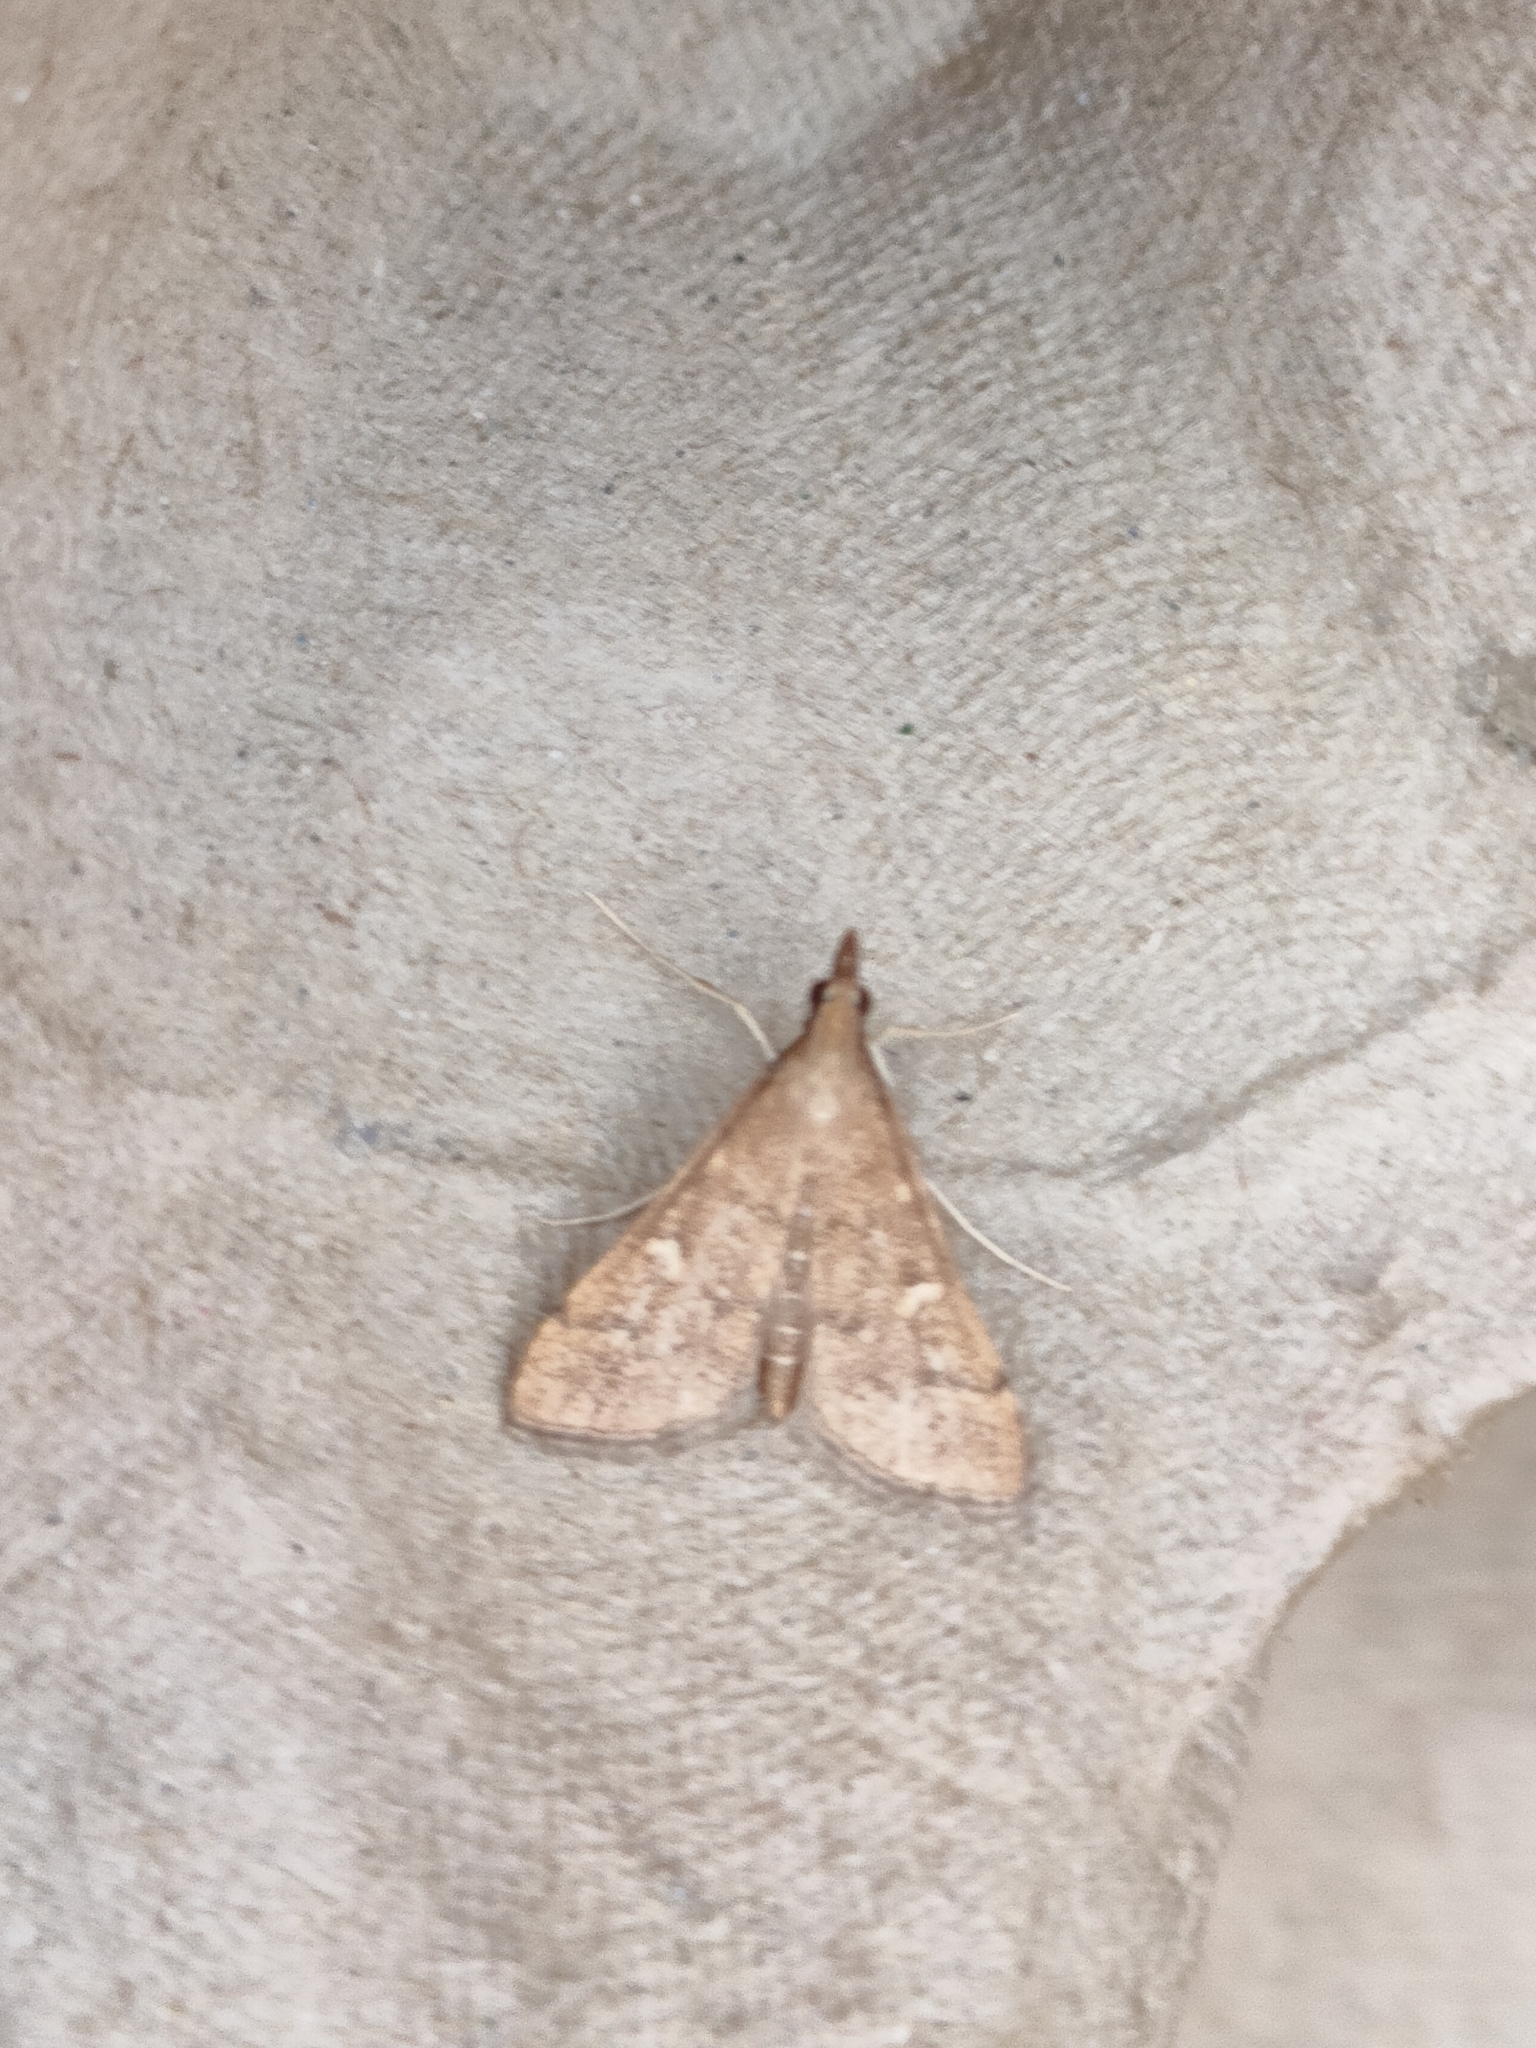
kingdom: Animalia
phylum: Arthropoda
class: Insecta
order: Lepidoptera
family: Crambidae
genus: Stenia
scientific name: Stenia Dolicharthria punctalis
